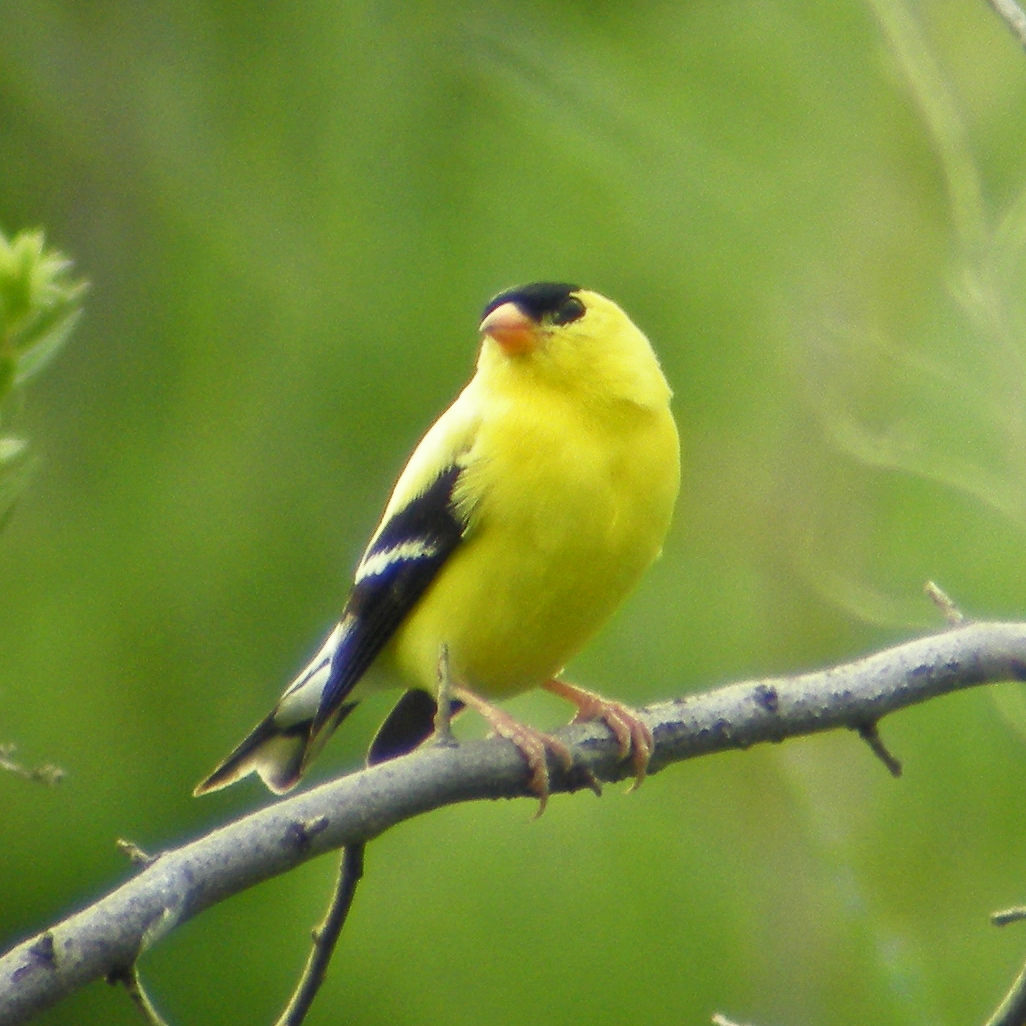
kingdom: Animalia
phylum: Chordata
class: Aves
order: Passeriformes
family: Fringillidae
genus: Spinus
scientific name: Spinus tristis
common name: American goldfinch
